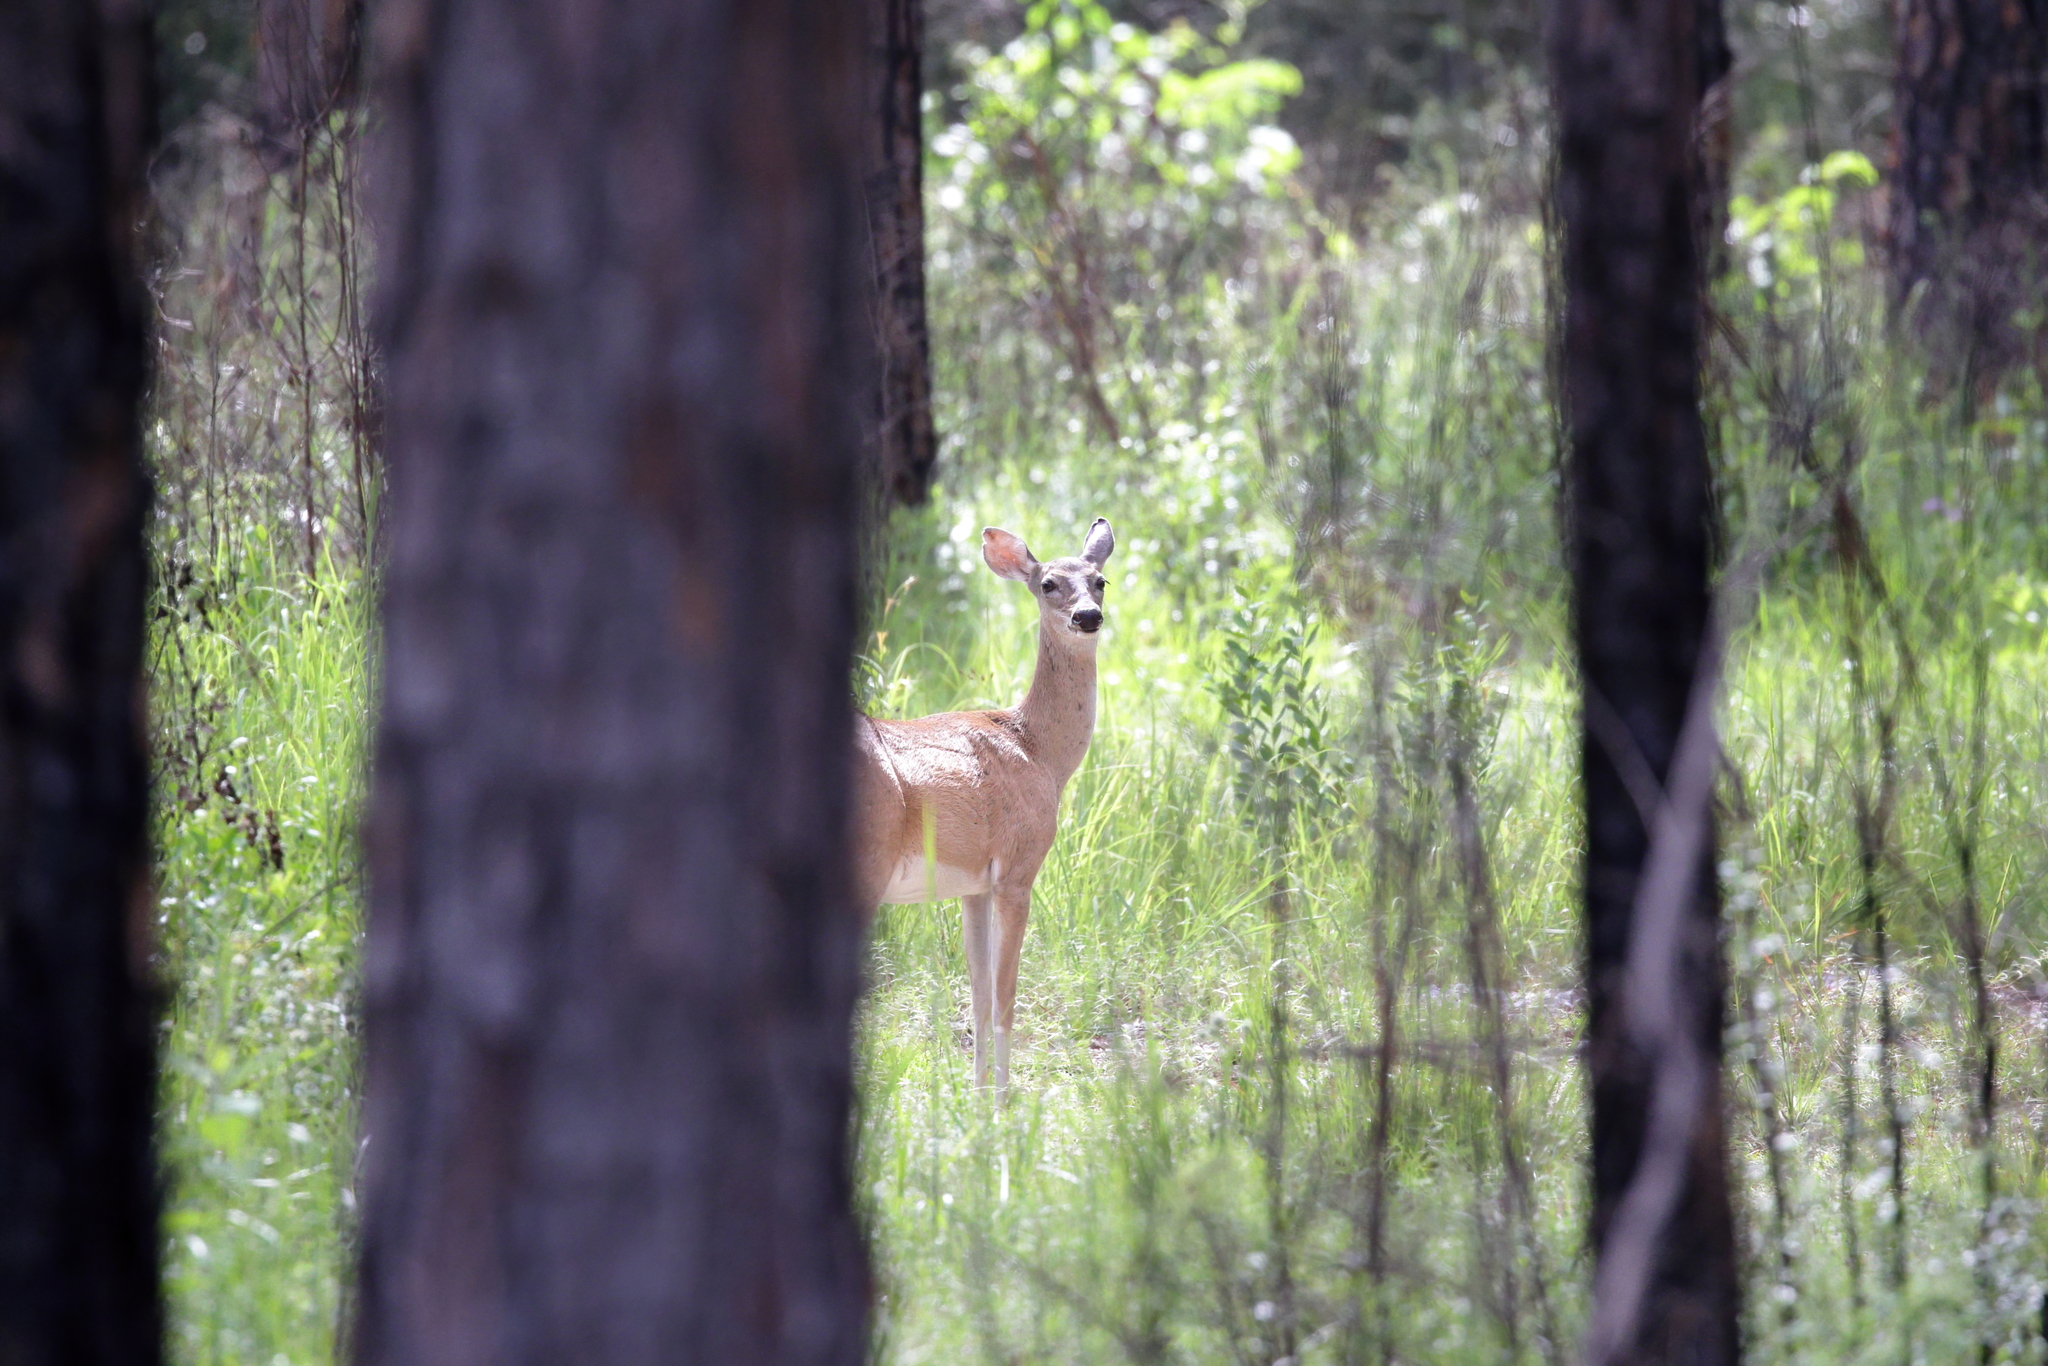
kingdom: Animalia
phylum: Chordata
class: Mammalia
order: Artiodactyla
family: Cervidae
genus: Odocoileus
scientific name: Odocoileus virginianus
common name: White-tailed deer
